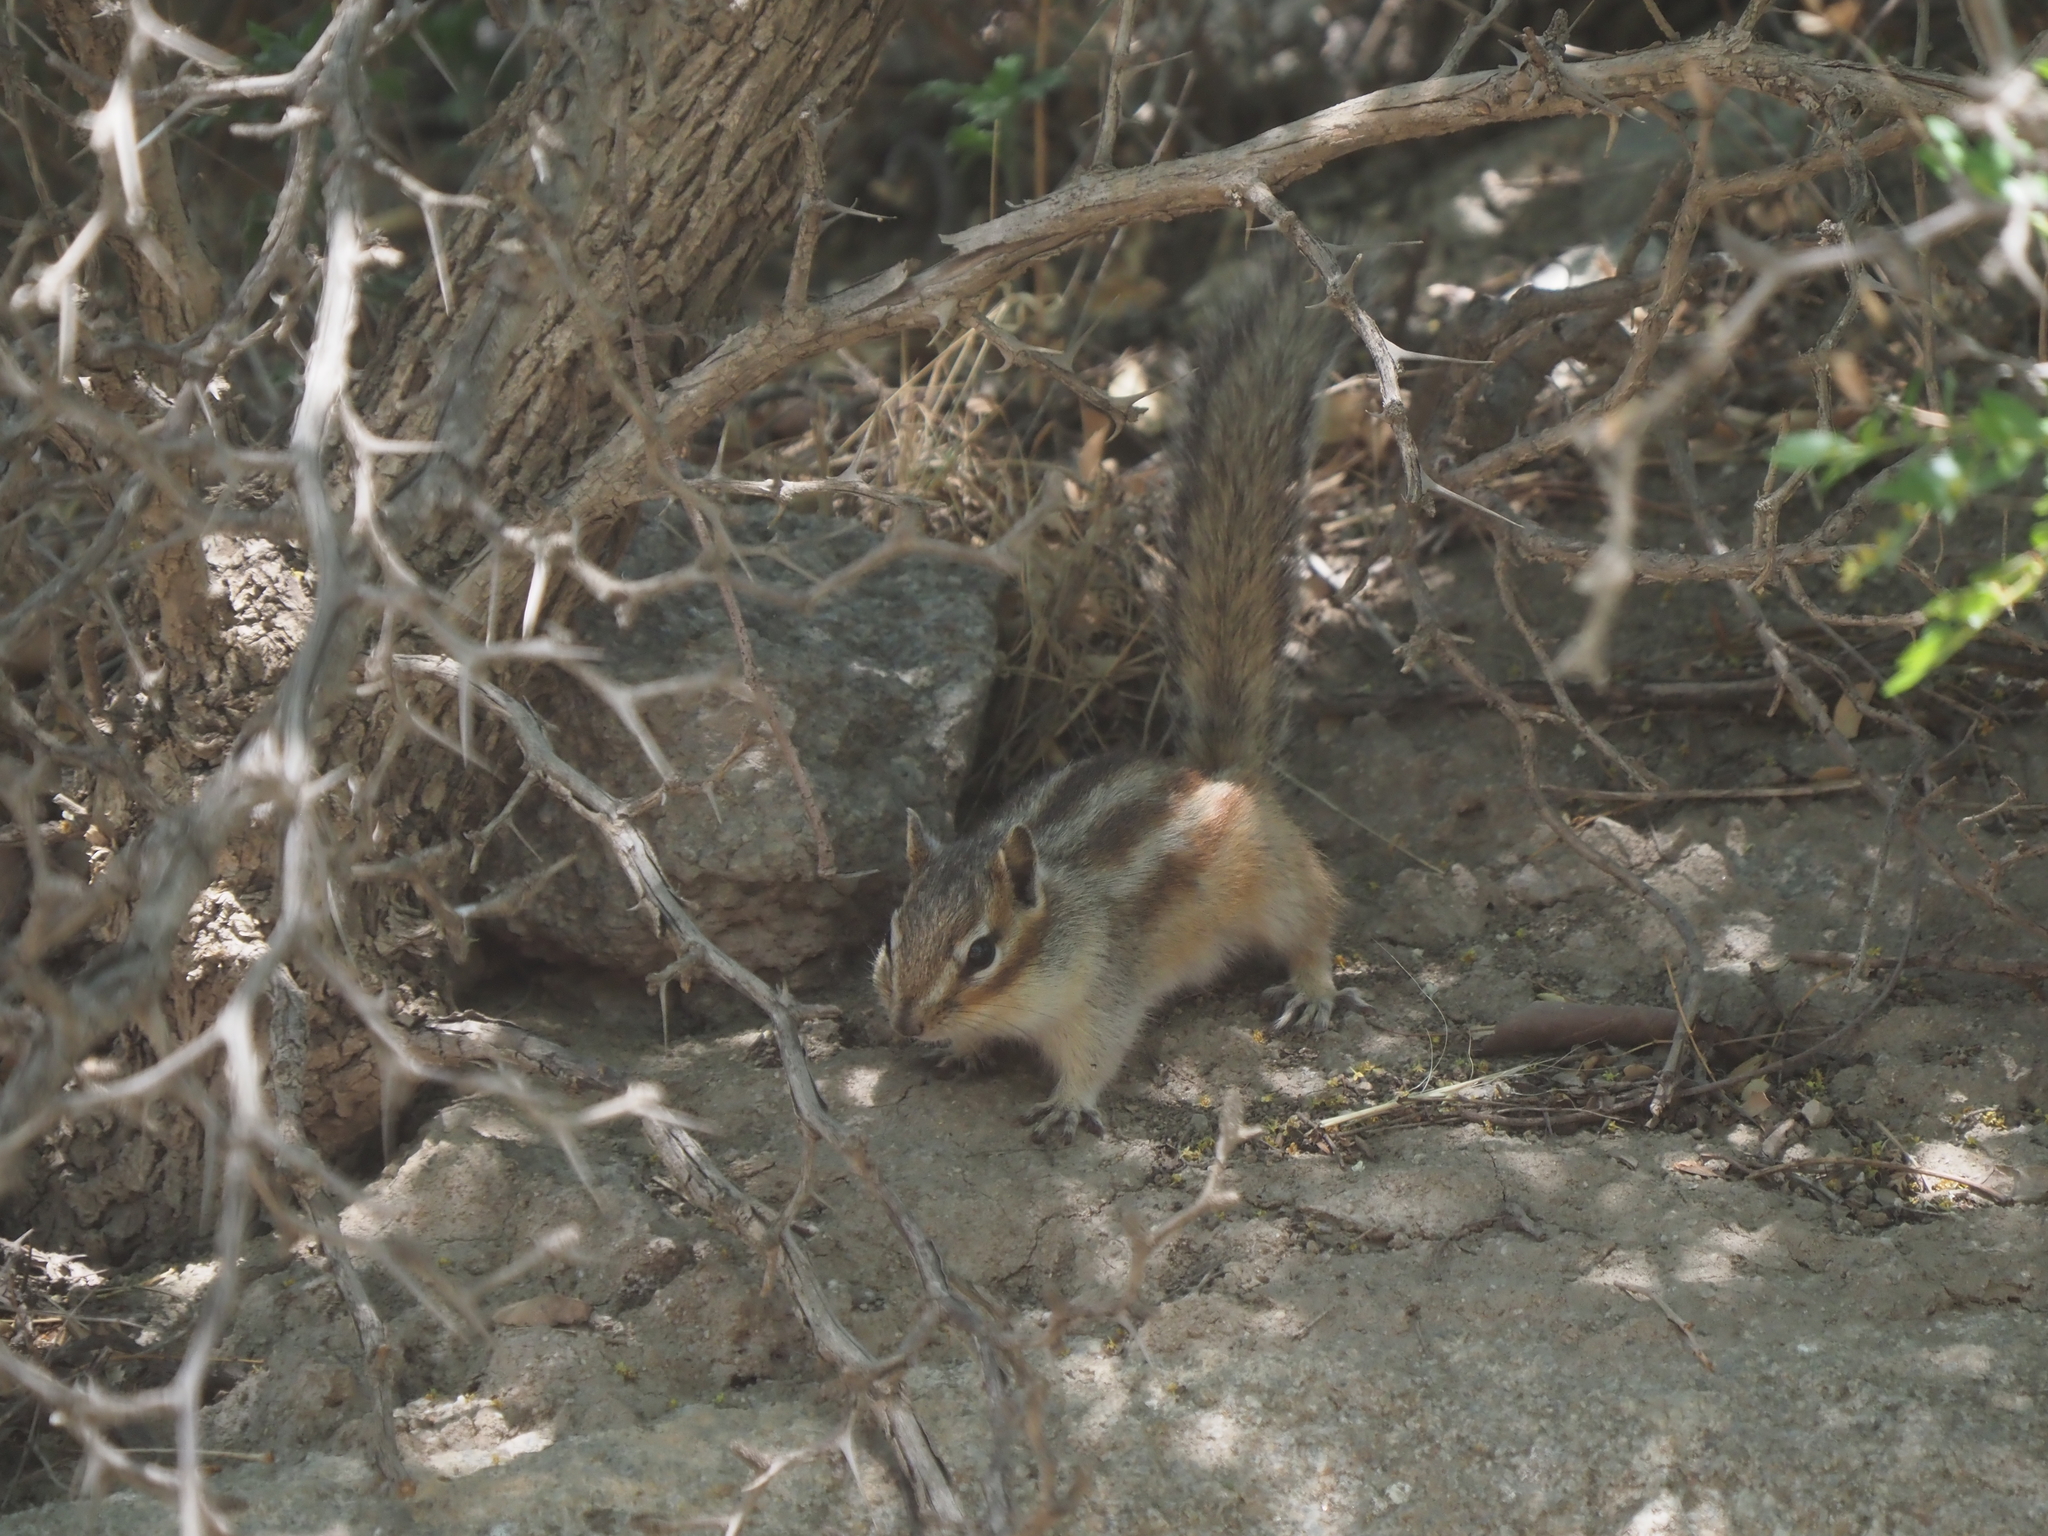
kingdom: Animalia
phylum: Chordata
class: Mammalia
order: Rodentia
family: Sciuridae
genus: Tamias
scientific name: Tamias sibiricus
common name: Siberian chipmunk
